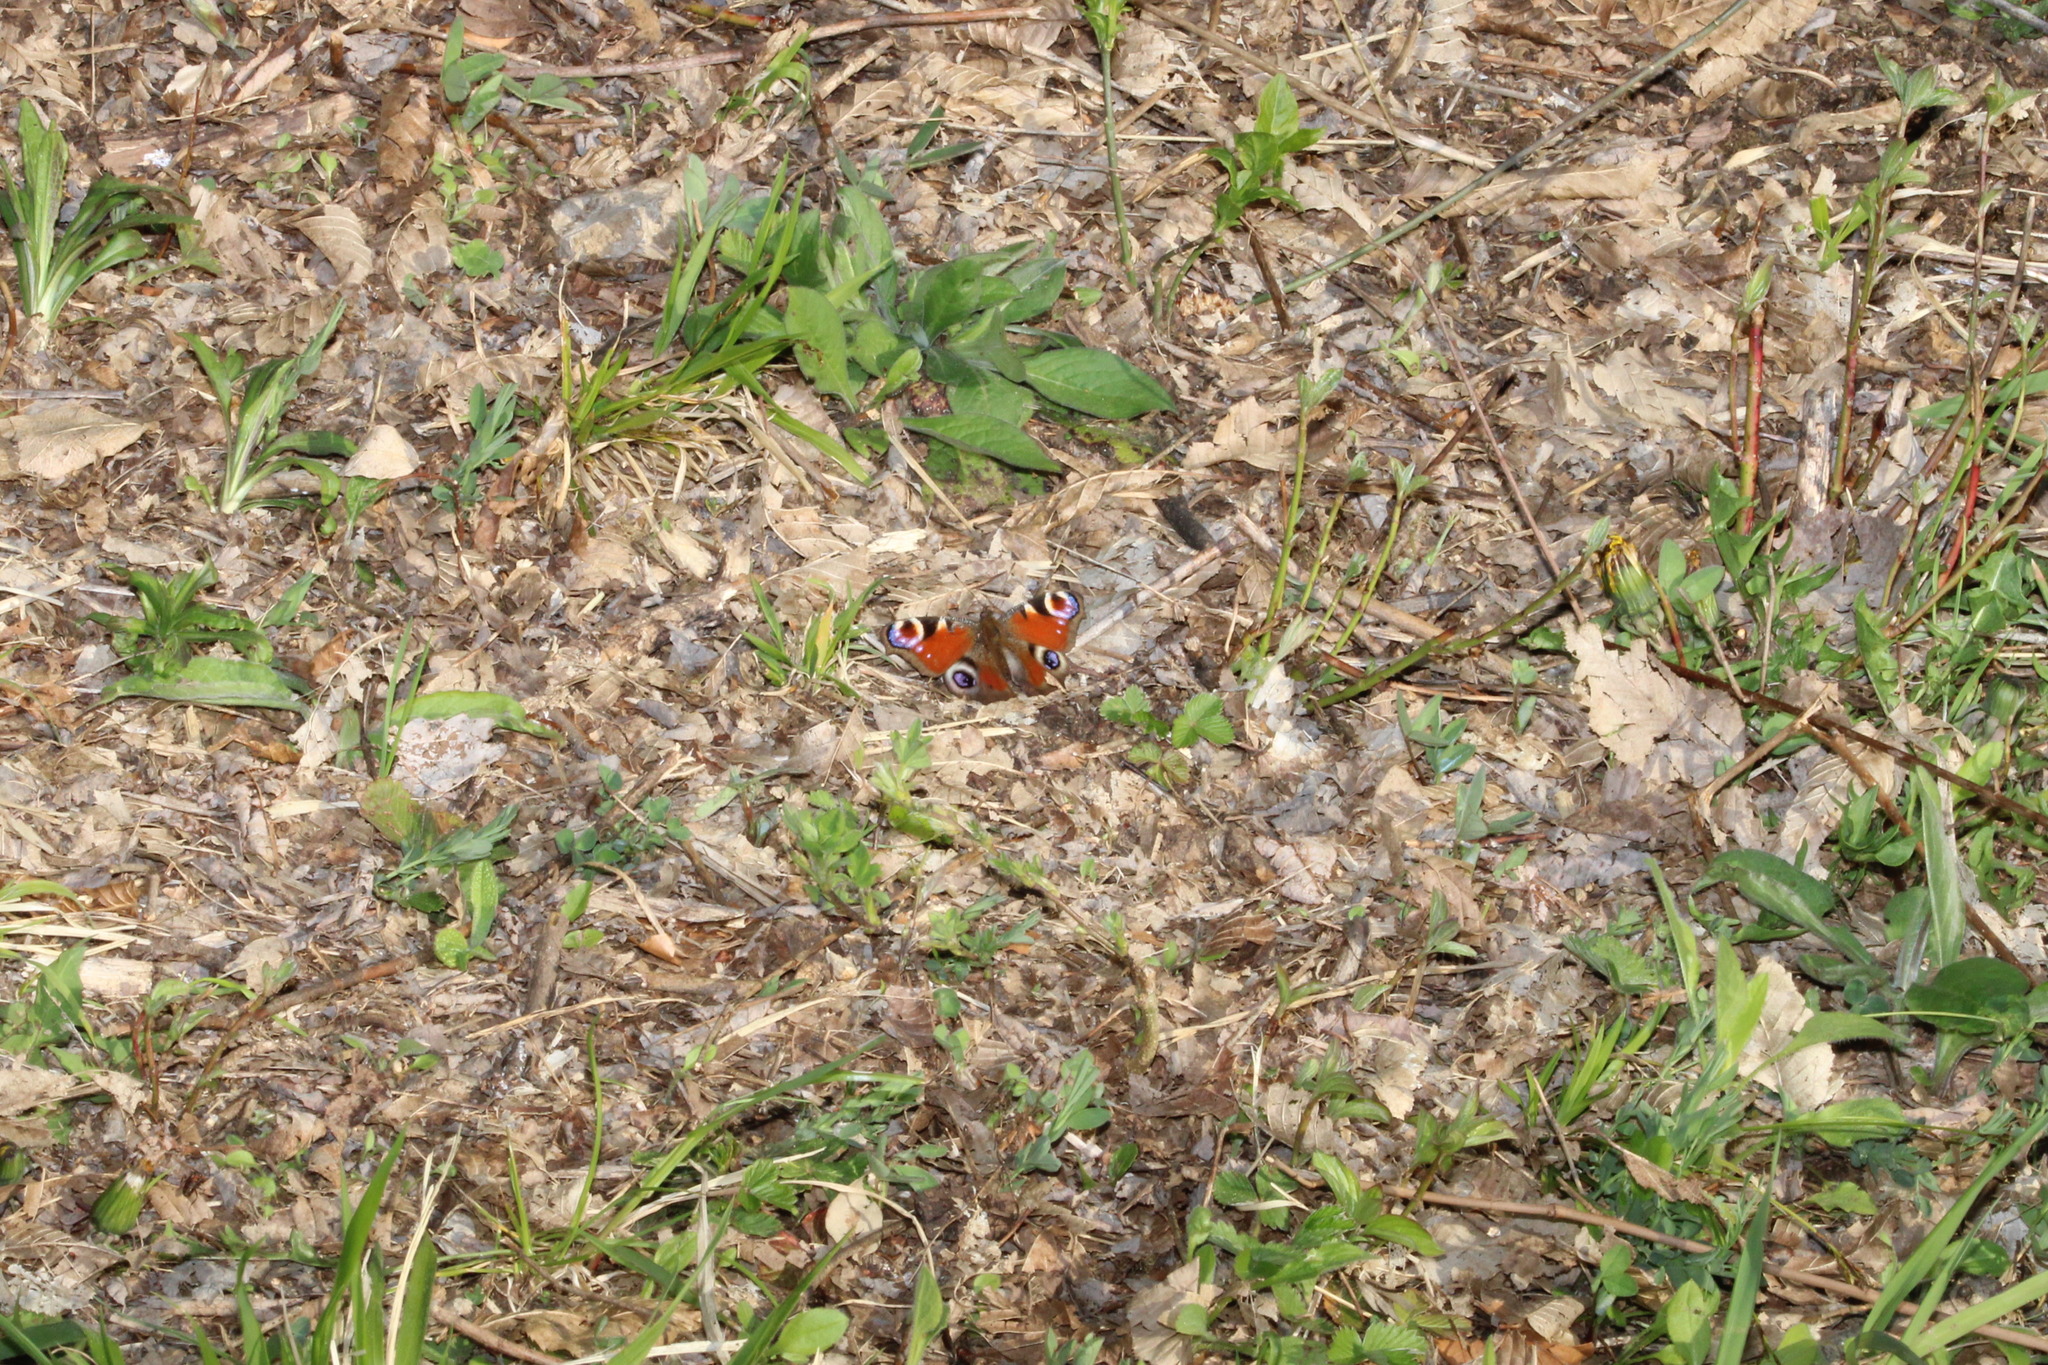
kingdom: Animalia
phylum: Arthropoda
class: Insecta
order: Lepidoptera
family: Nymphalidae
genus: Aglais
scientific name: Aglais io
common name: Peacock
